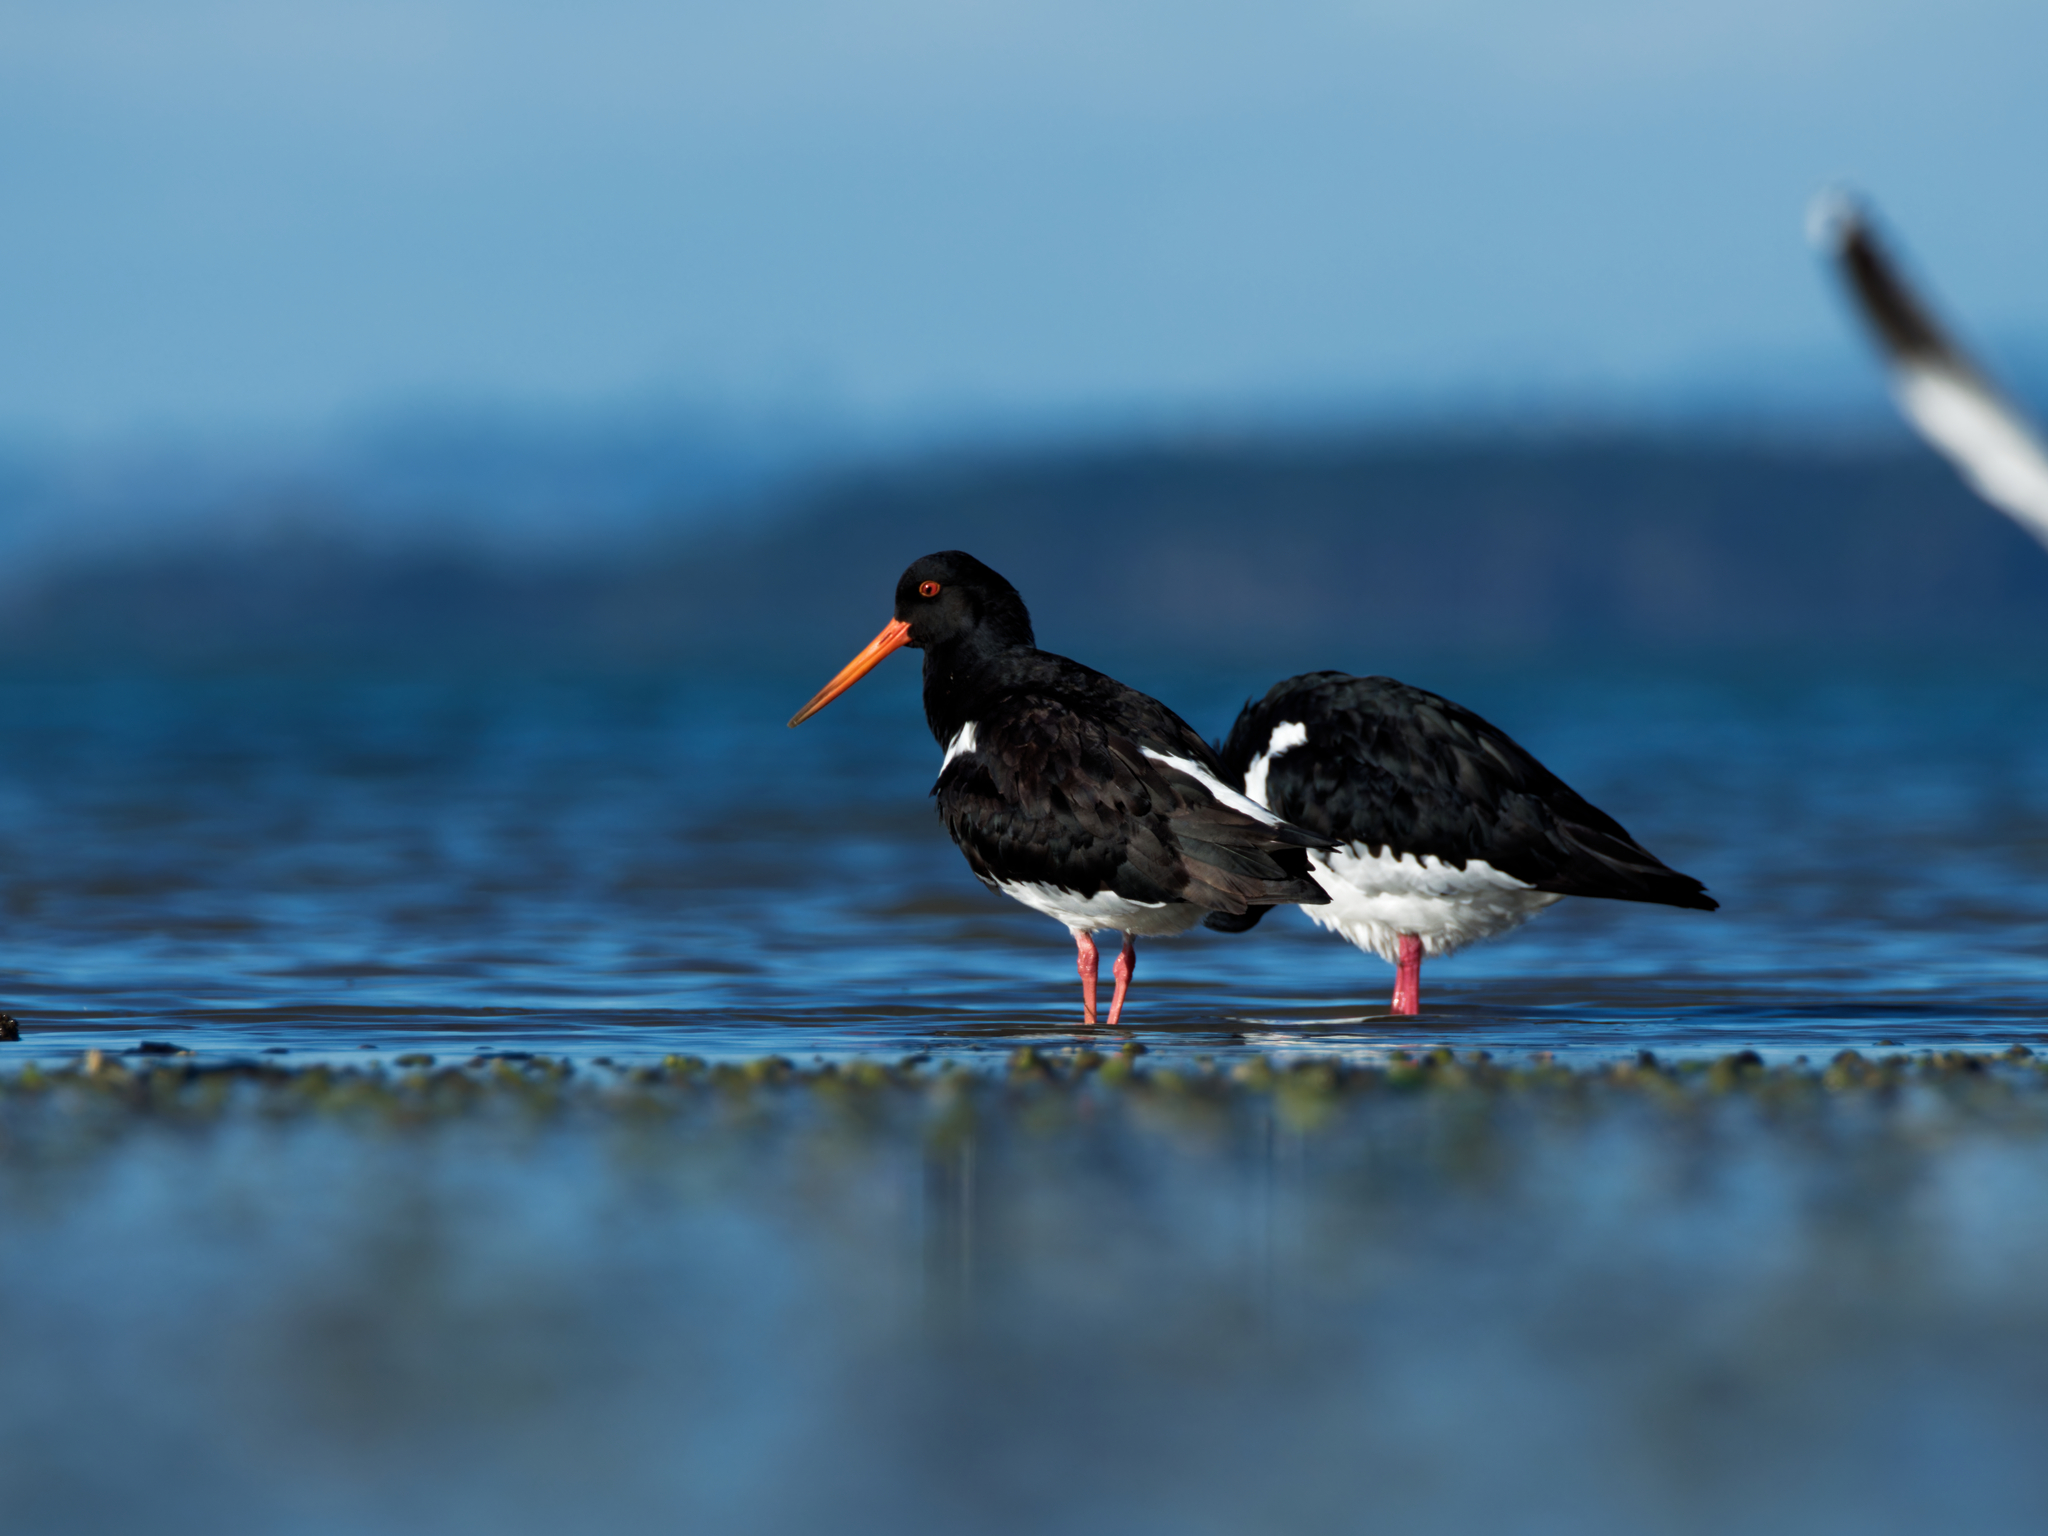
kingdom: Animalia
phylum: Chordata
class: Aves
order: Charadriiformes
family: Haematopodidae
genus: Haematopus
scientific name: Haematopus finschi
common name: South island oystercatcher
